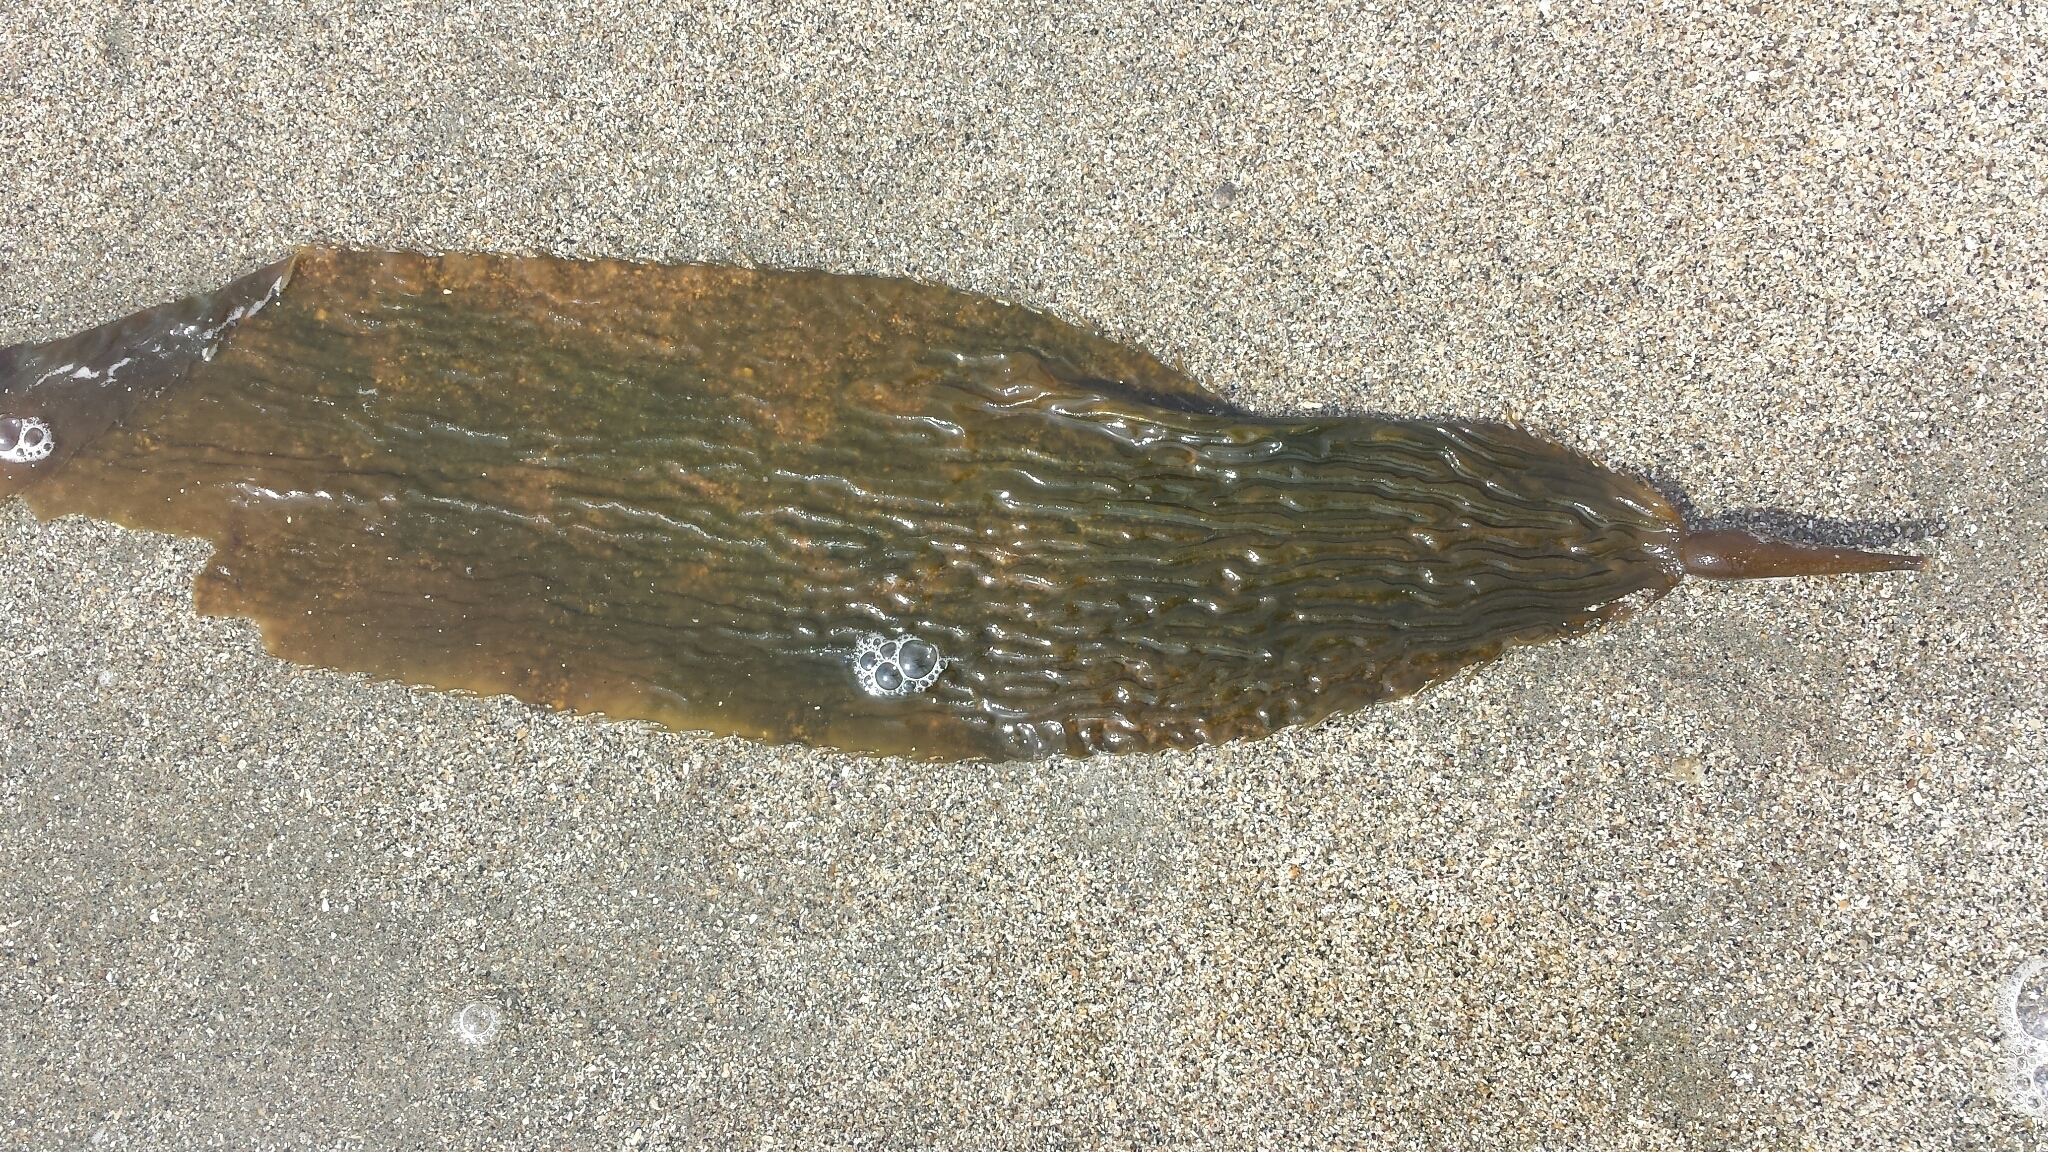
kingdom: Chromista
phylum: Ochrophyta
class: Phaeophyceae
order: Laminariales
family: Laminariaceae
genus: Macrocystis
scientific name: Macrocystis pyrifera
